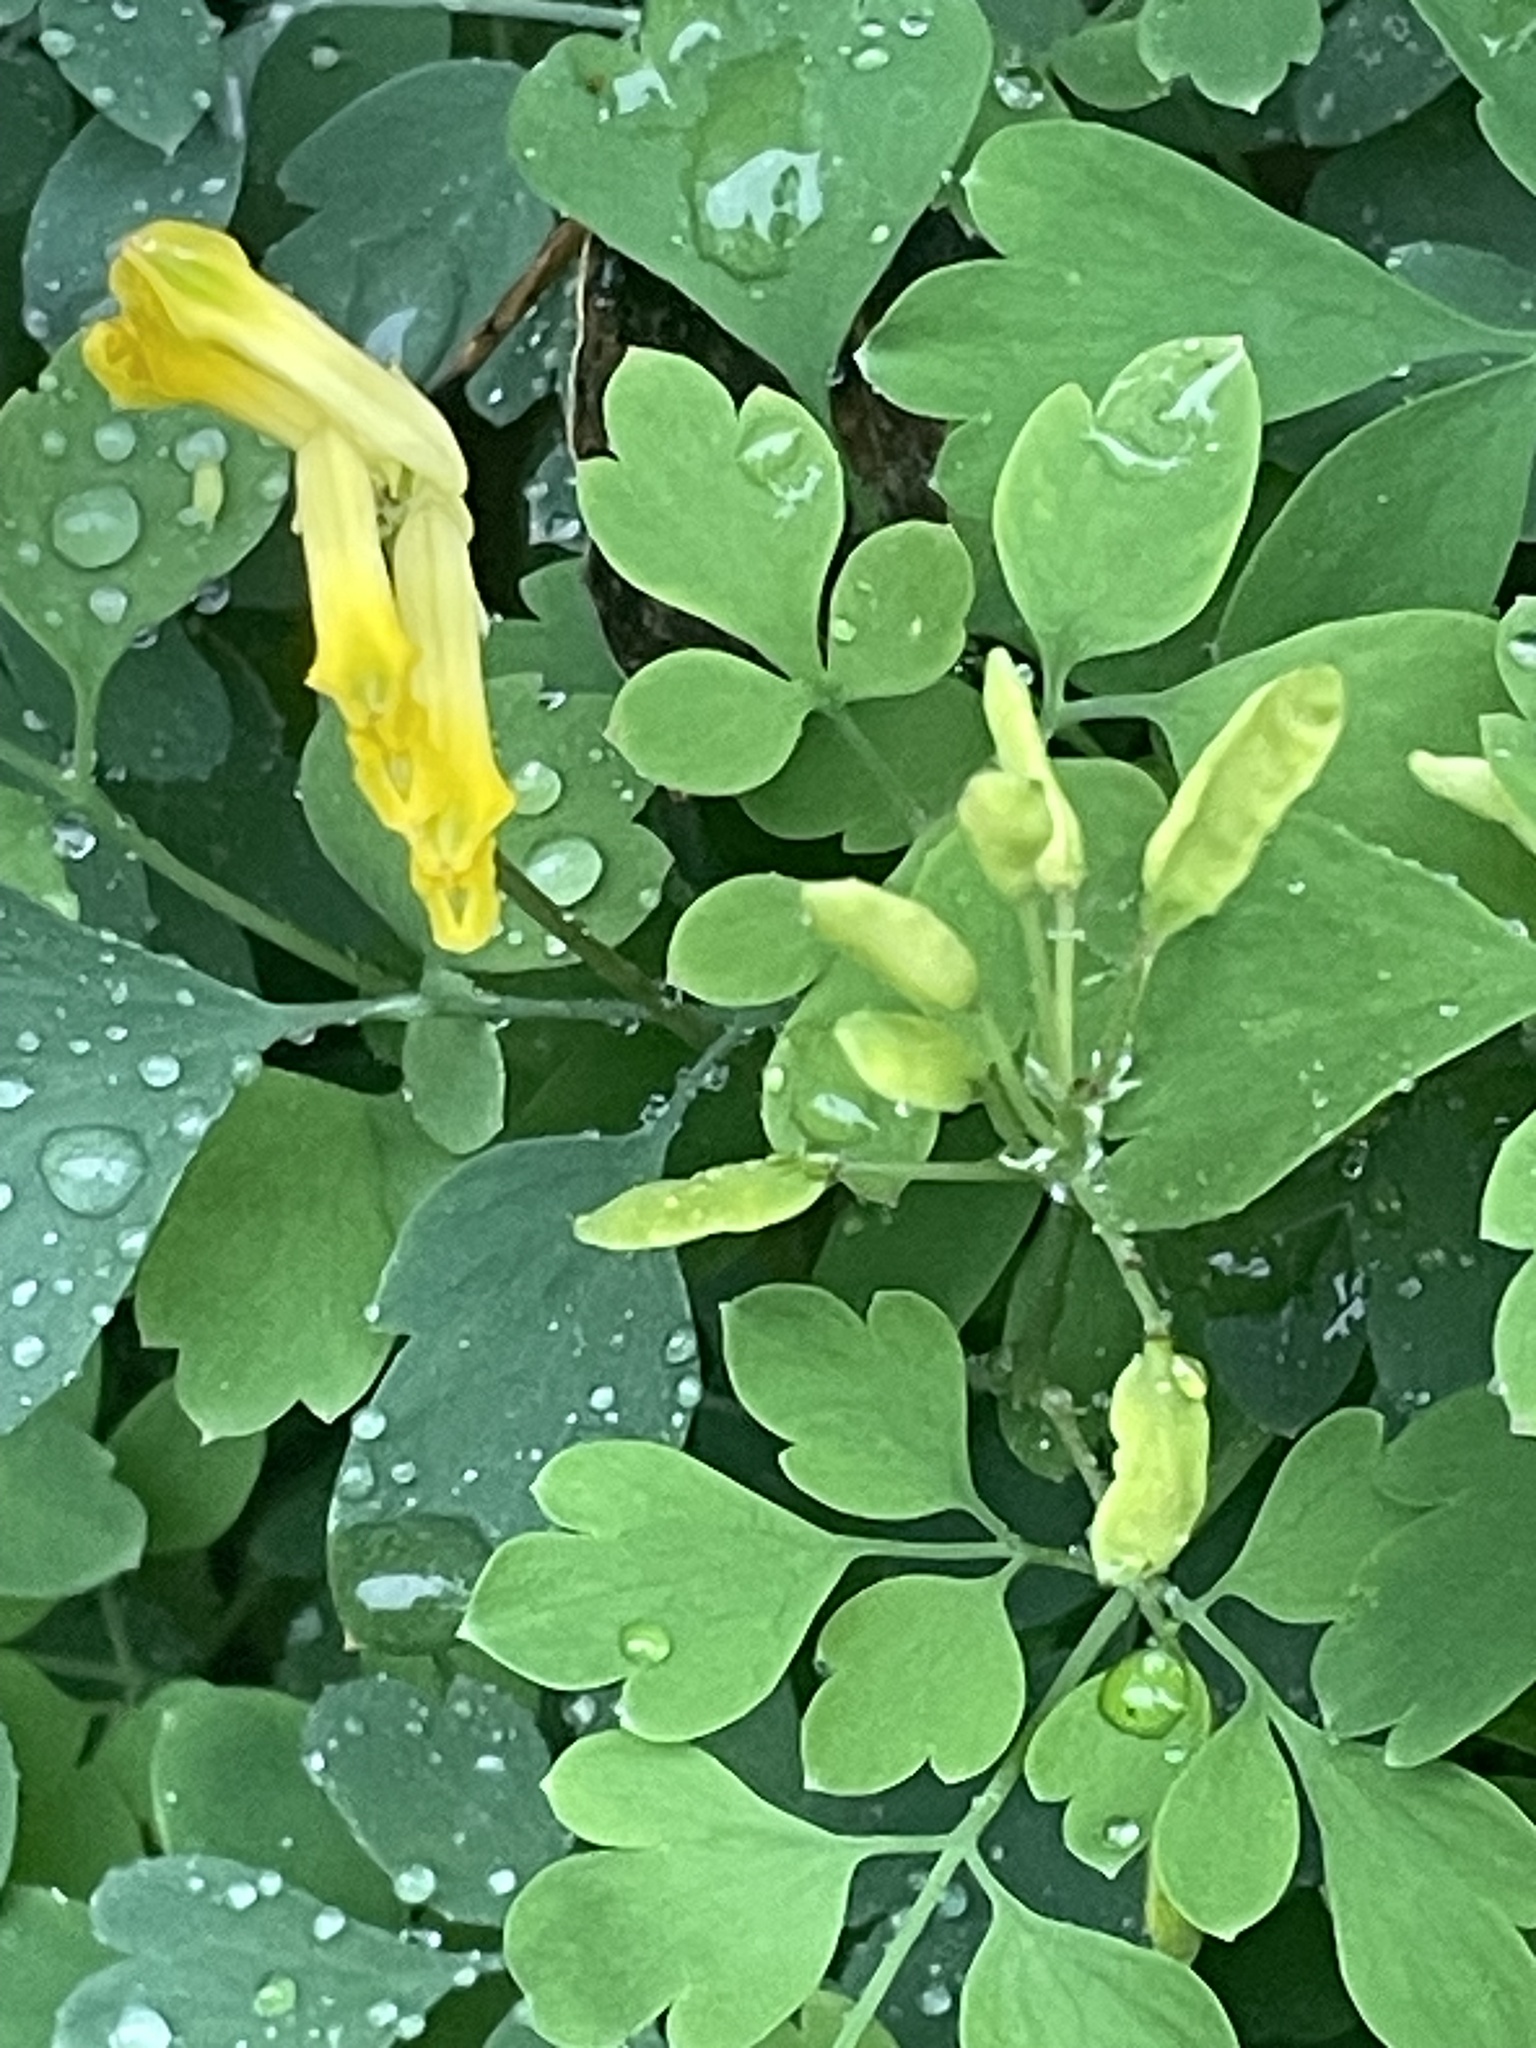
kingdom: Plantae
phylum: Tracheophyta
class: Magnoliopsida
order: Ranunculales
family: Papaveraceae
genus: Pseudofumaria
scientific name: Pseudofumaria lutea
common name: Yellow corydalis
